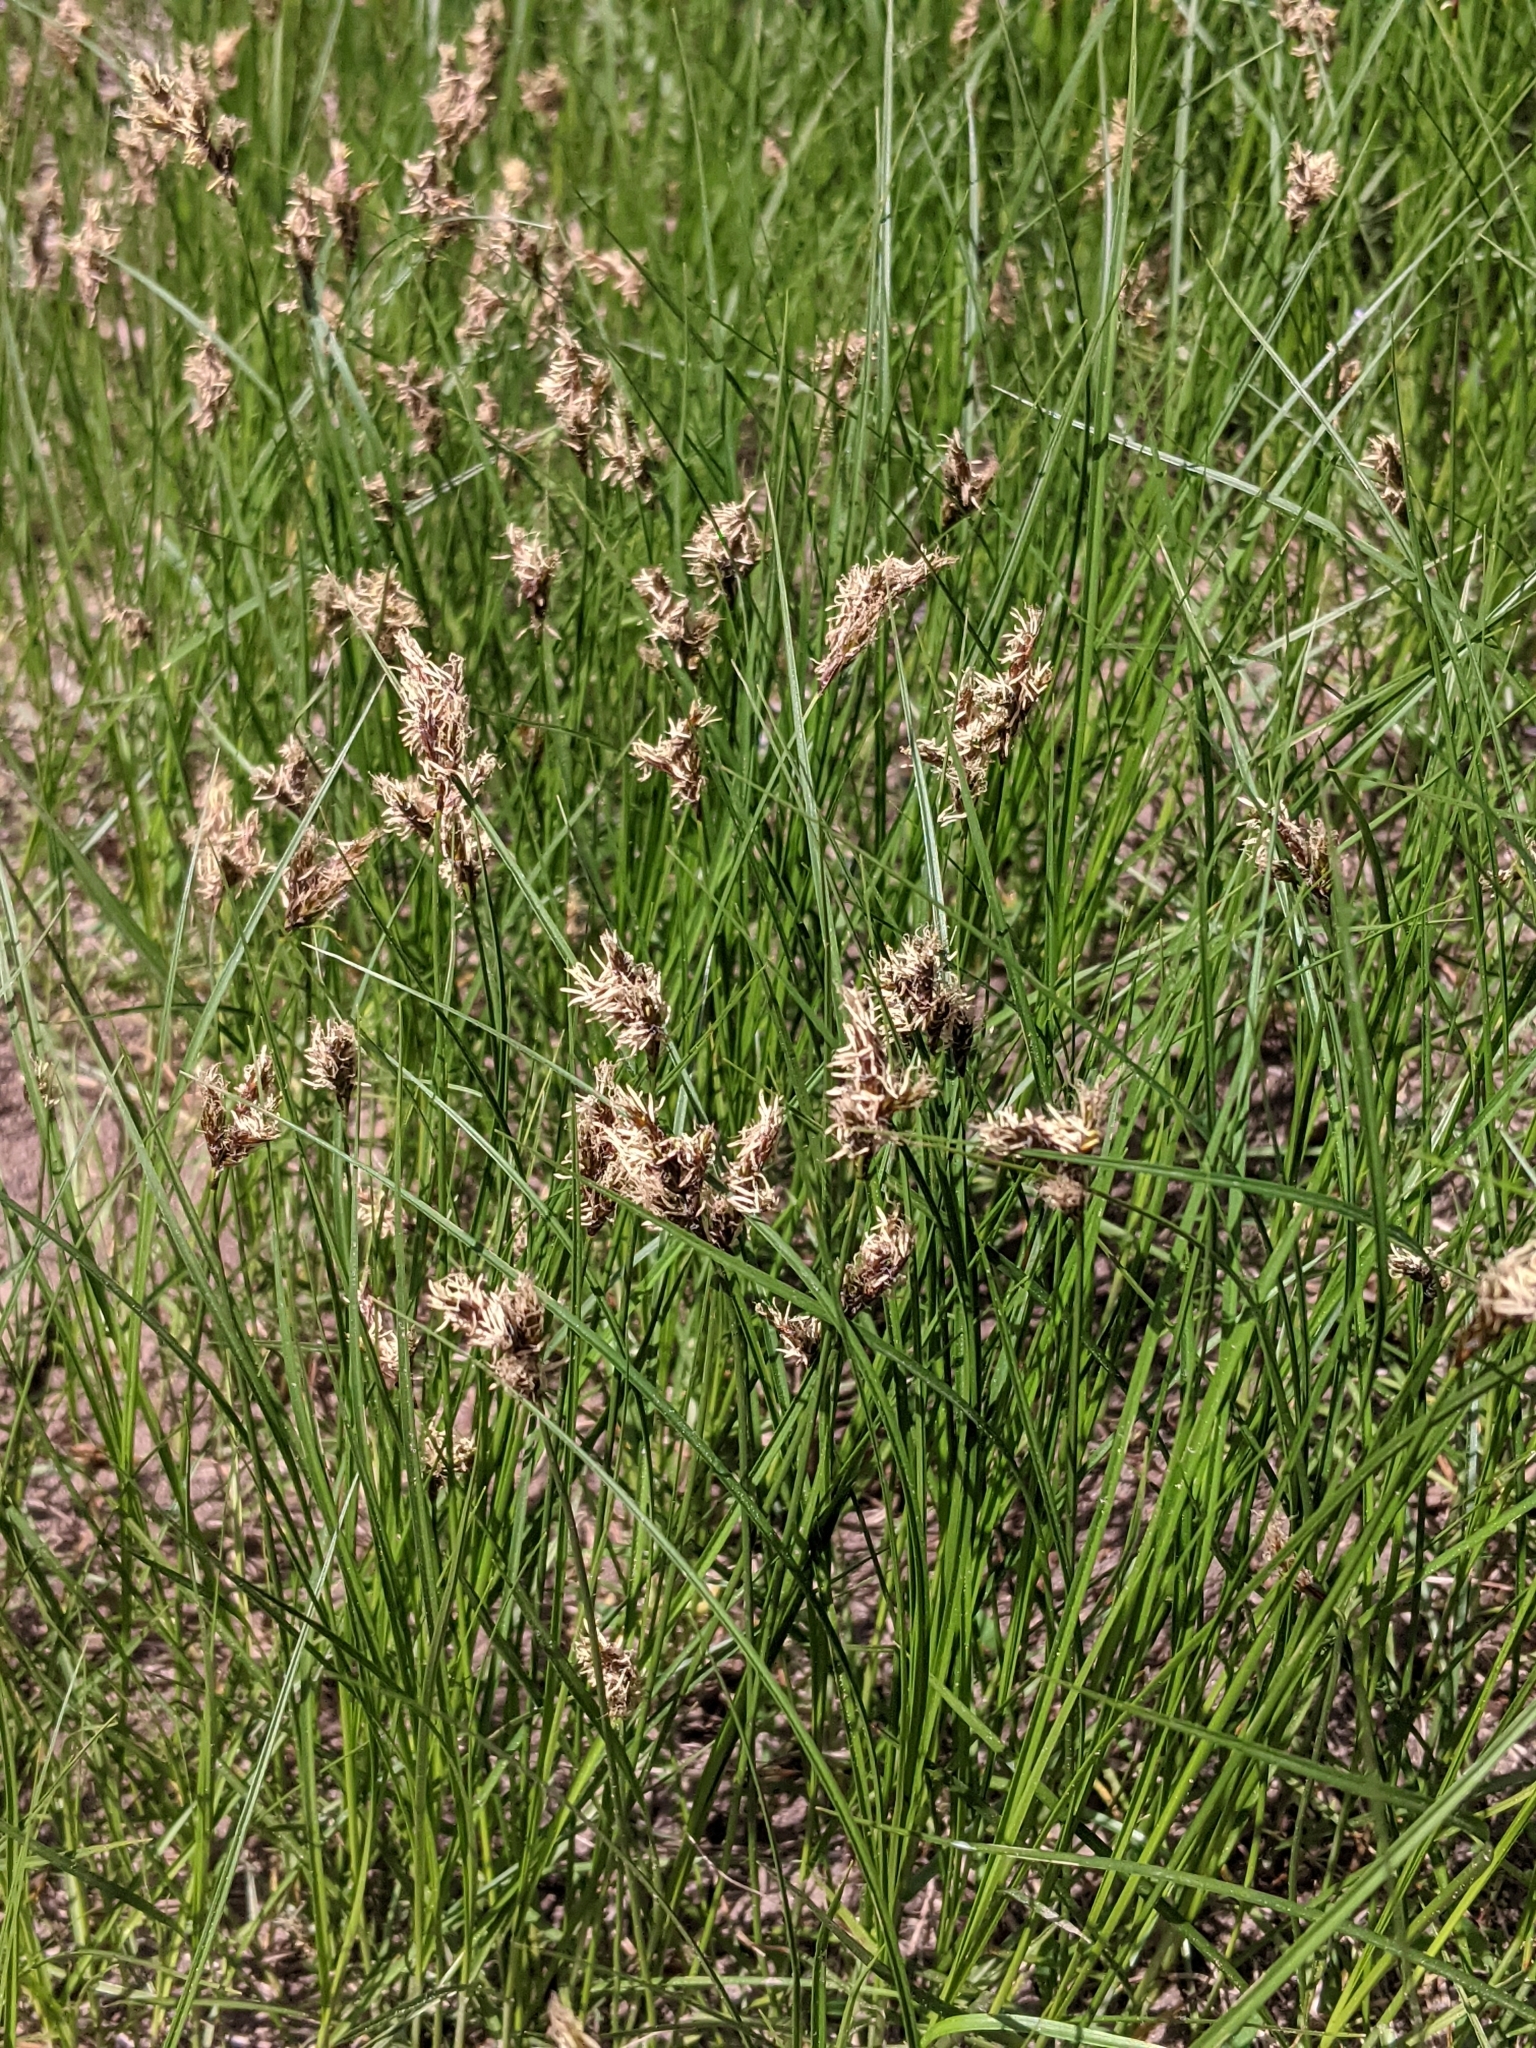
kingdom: Plantae
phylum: Tracheophyta
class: Liliopsida
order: Poales
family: Cyperaceae
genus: Carex
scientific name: Carex praecox
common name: Early sedge
